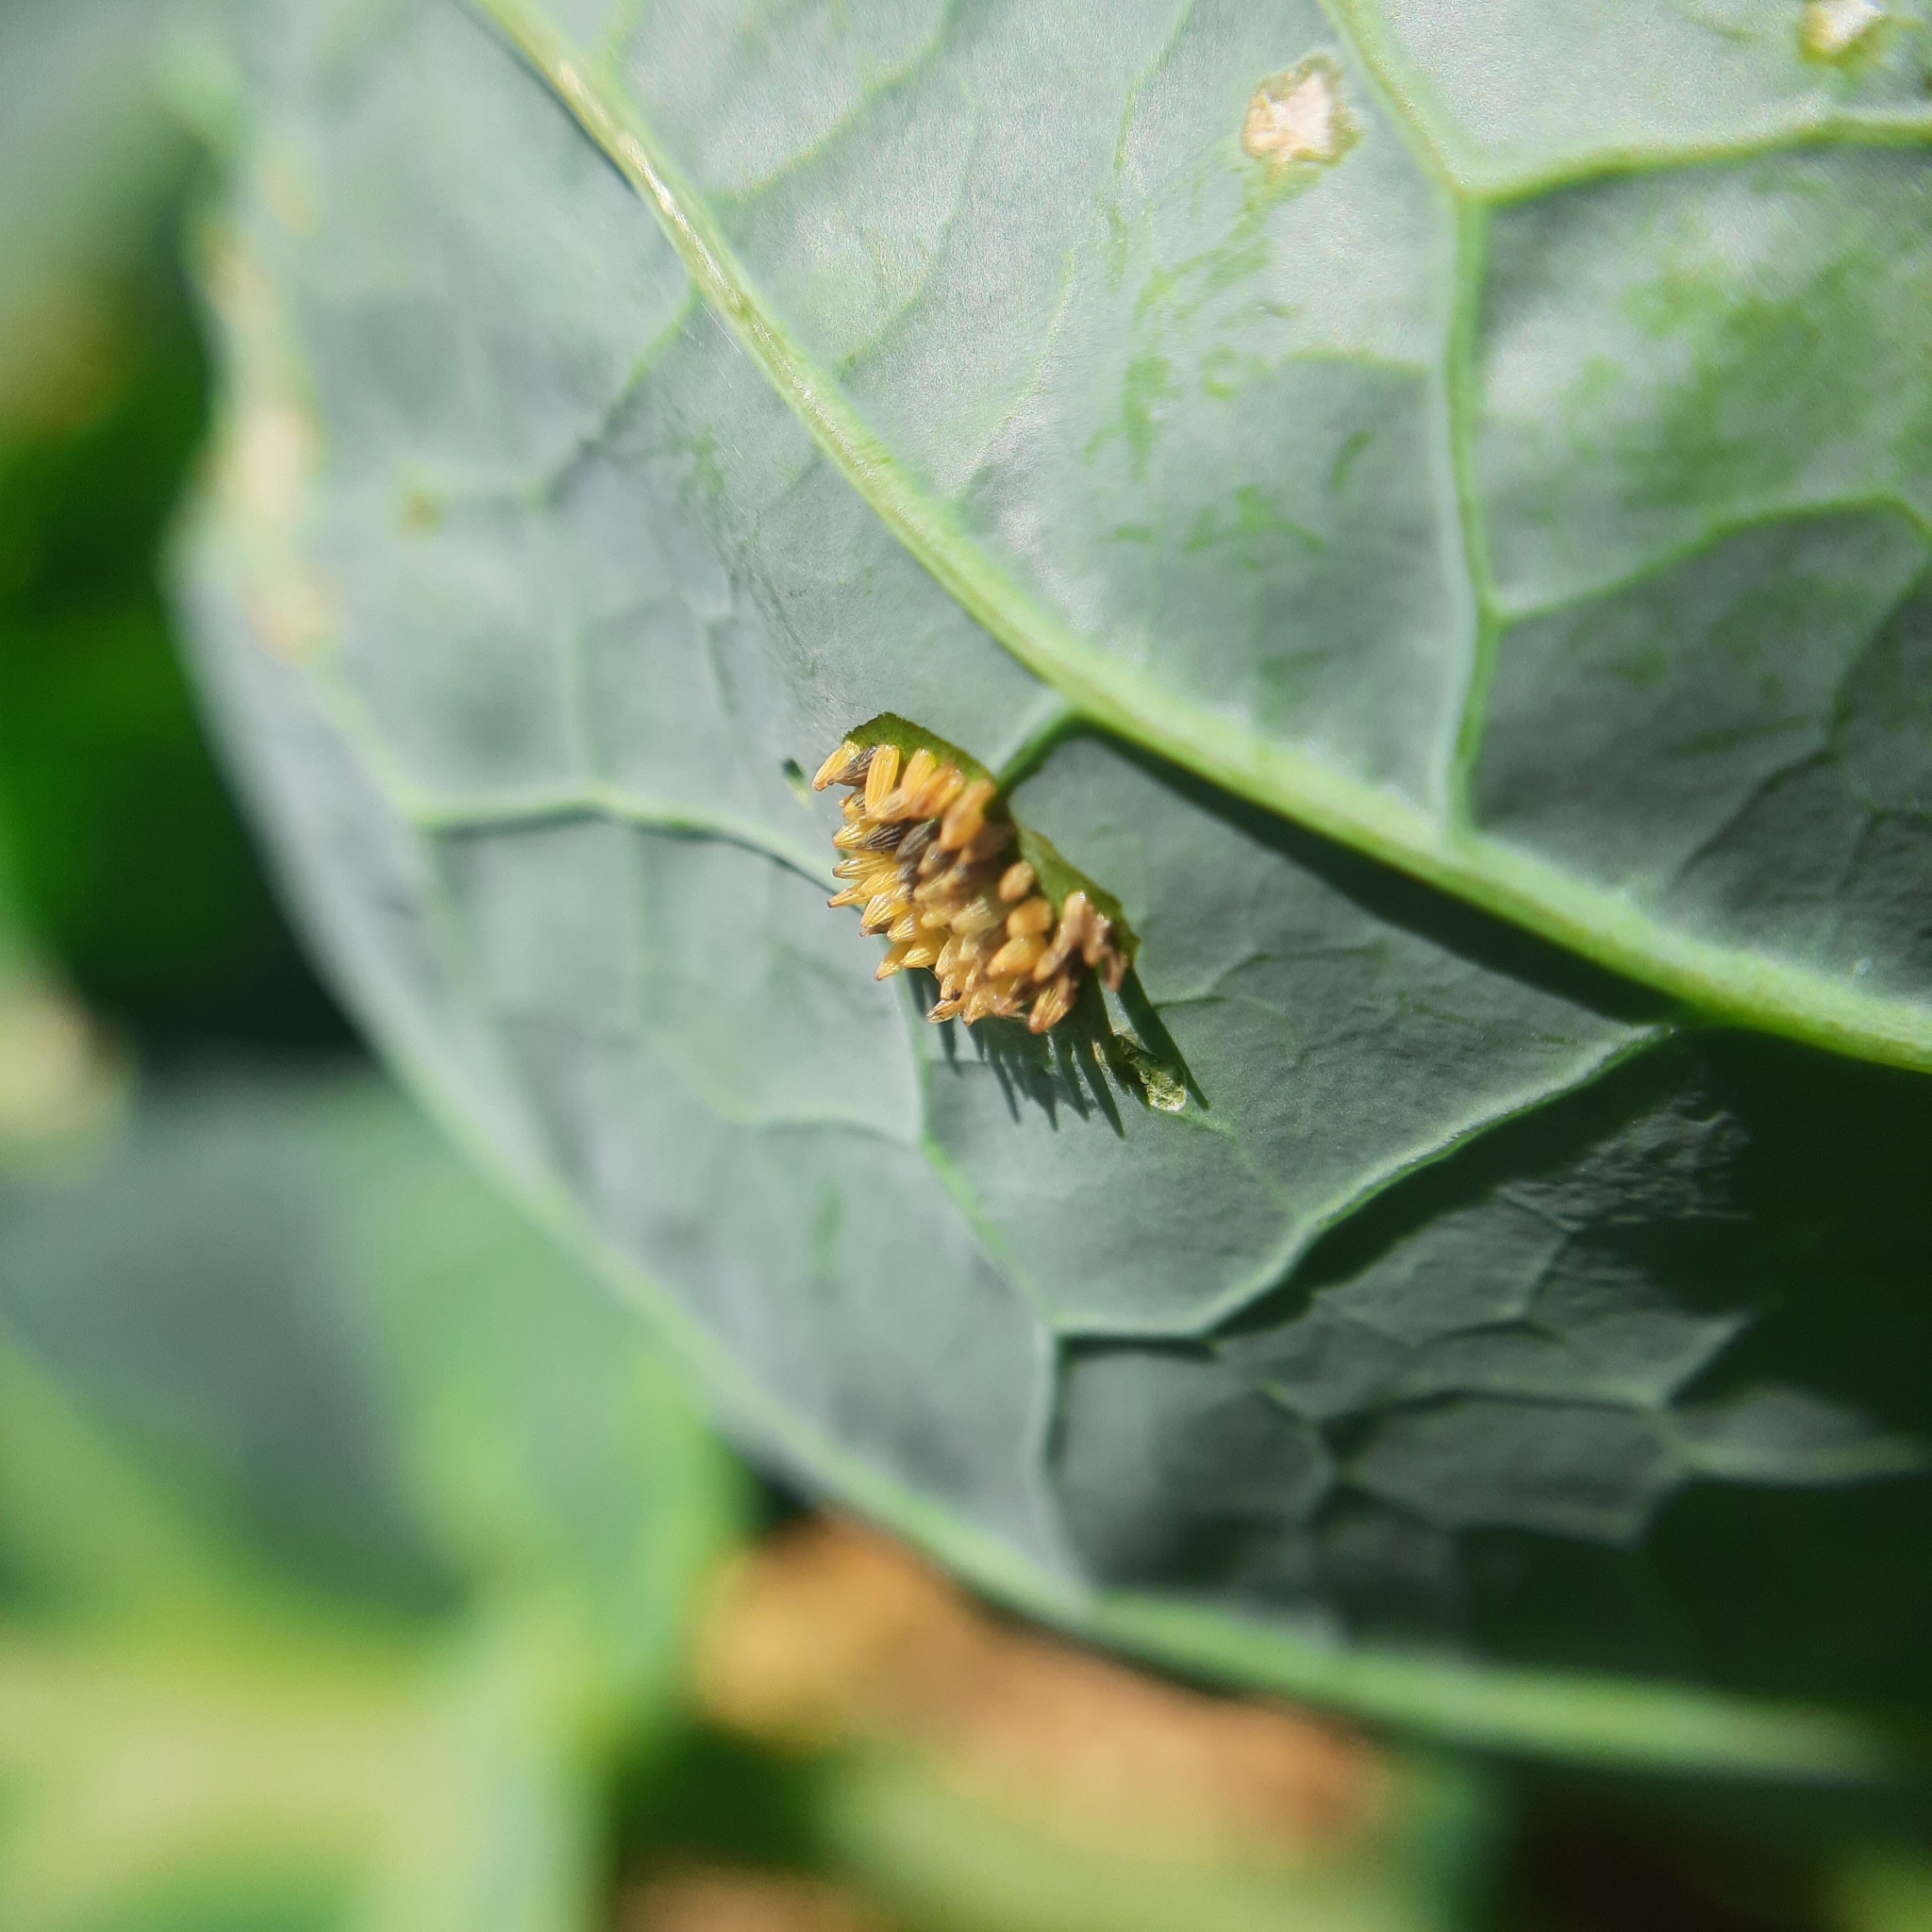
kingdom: Animalia
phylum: Arthropoda
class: Insecta
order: Lepidoptera
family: Pieridae
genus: Pieris
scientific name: Pieris brassicae
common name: Large white
